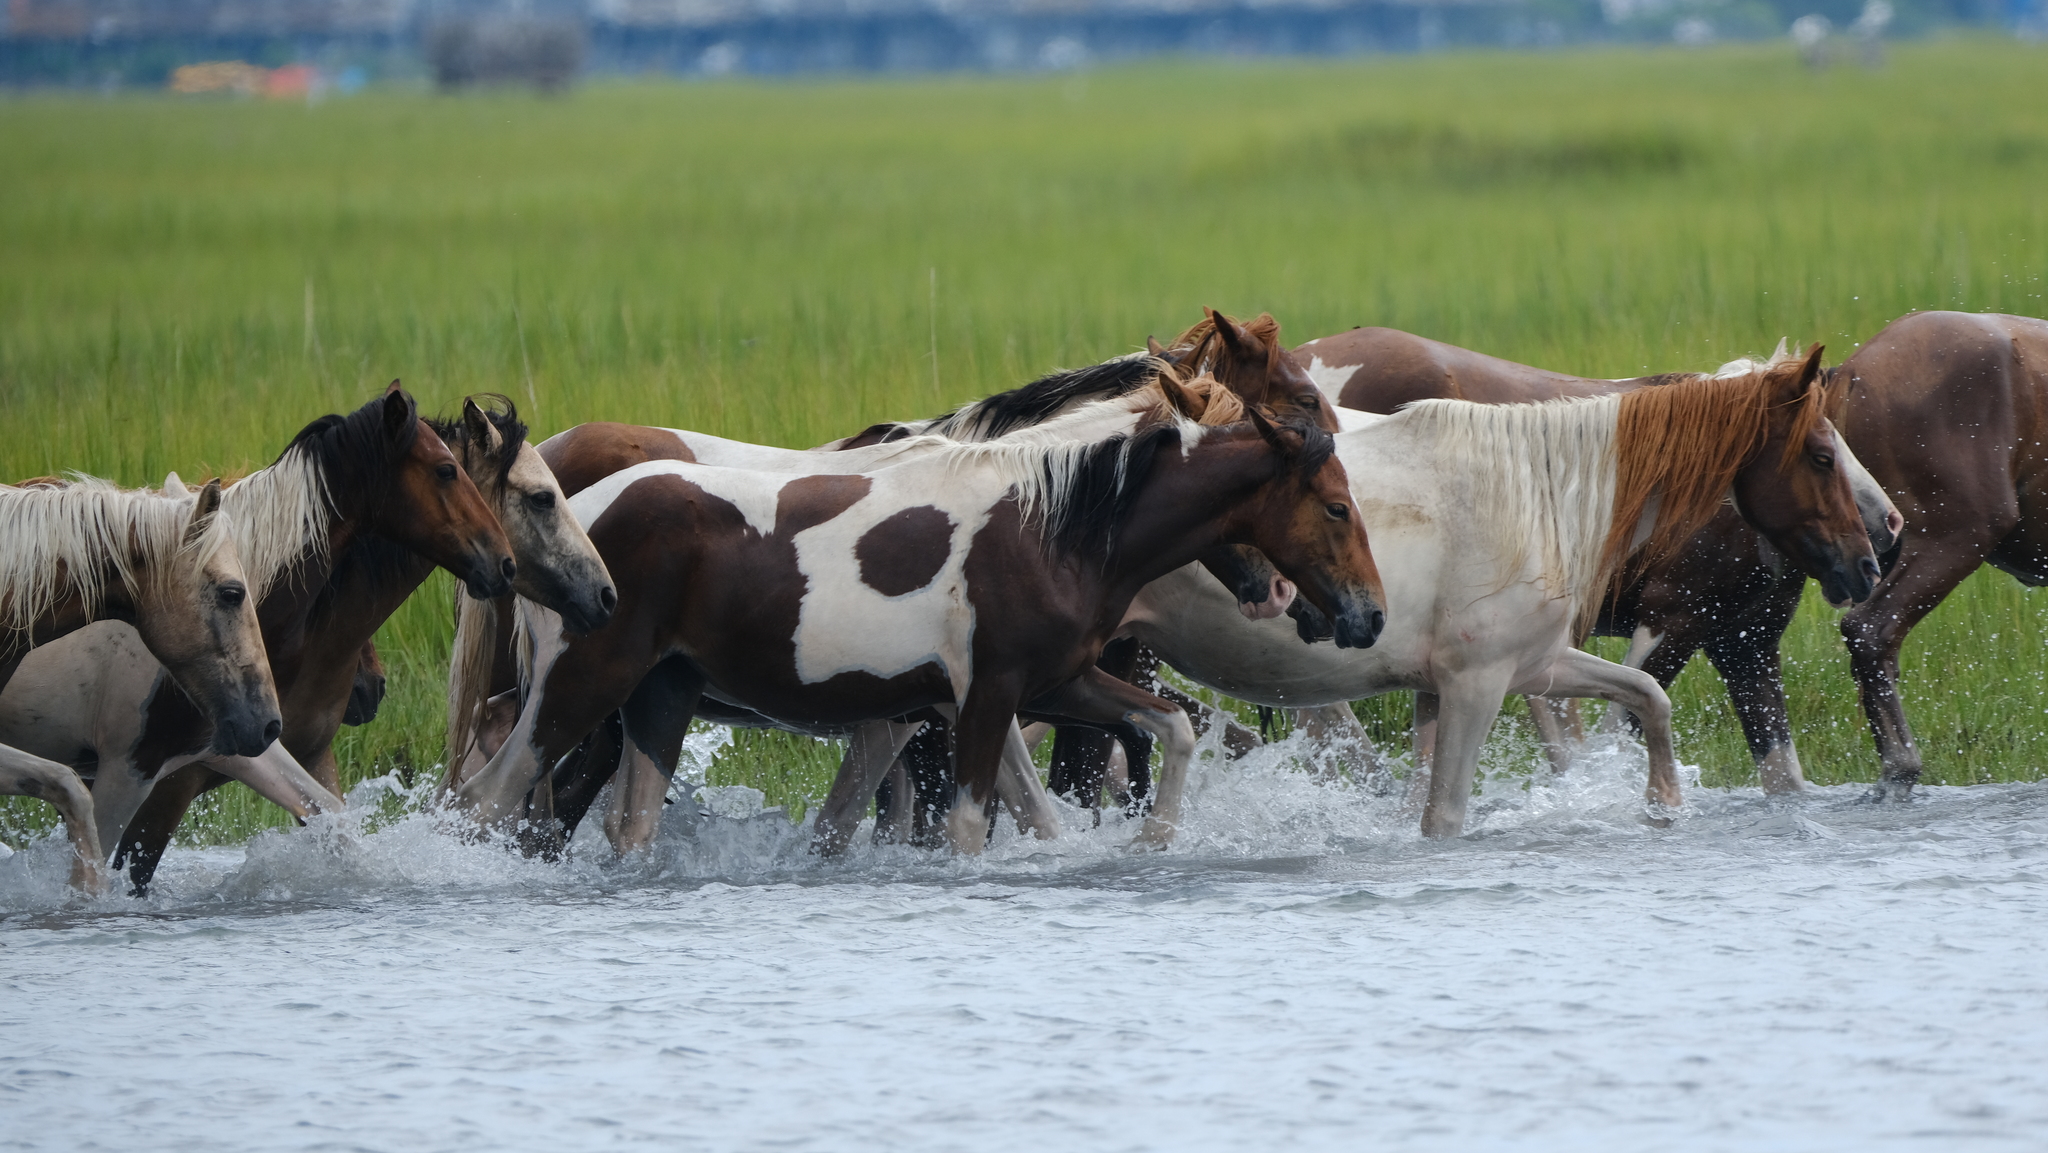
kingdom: Animalia
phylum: Chordata
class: Mammalia
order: Perissodactyla
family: Equidae
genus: Equus
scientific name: Equus caballus
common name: Horse
